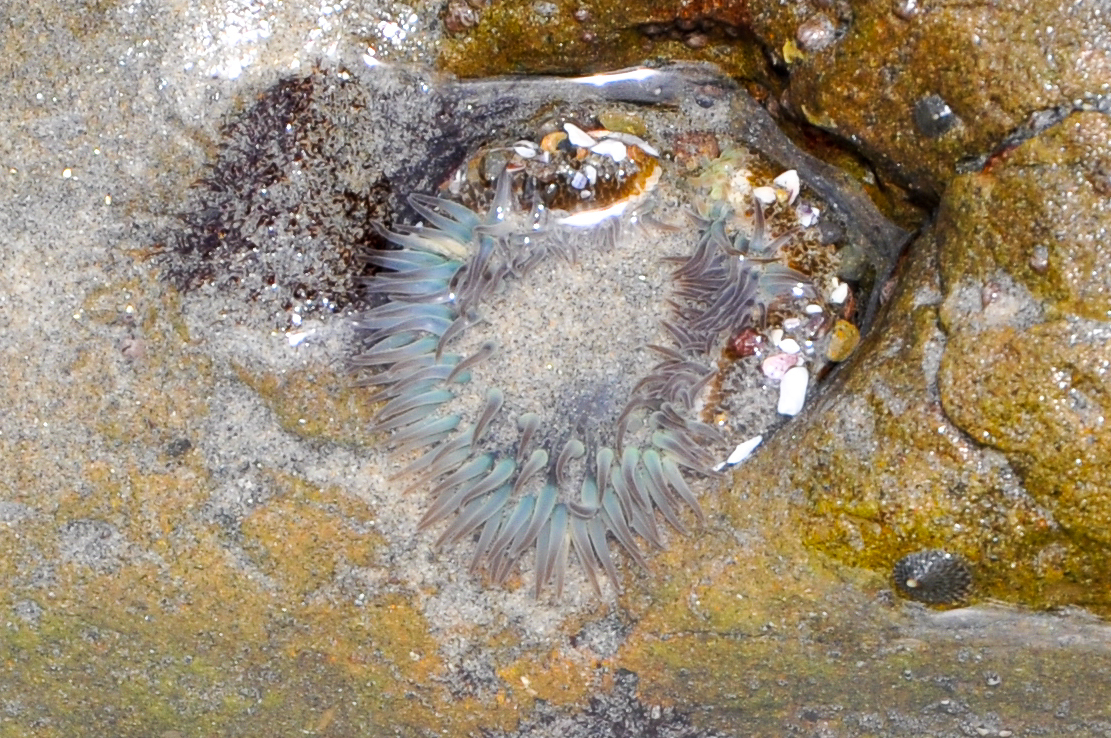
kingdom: Animalia
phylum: Cnidaria
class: Anthozoa
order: Actiniaria
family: Actiniidae
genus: Anthopleura
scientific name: Anthopleura sola
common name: Sun anemone
